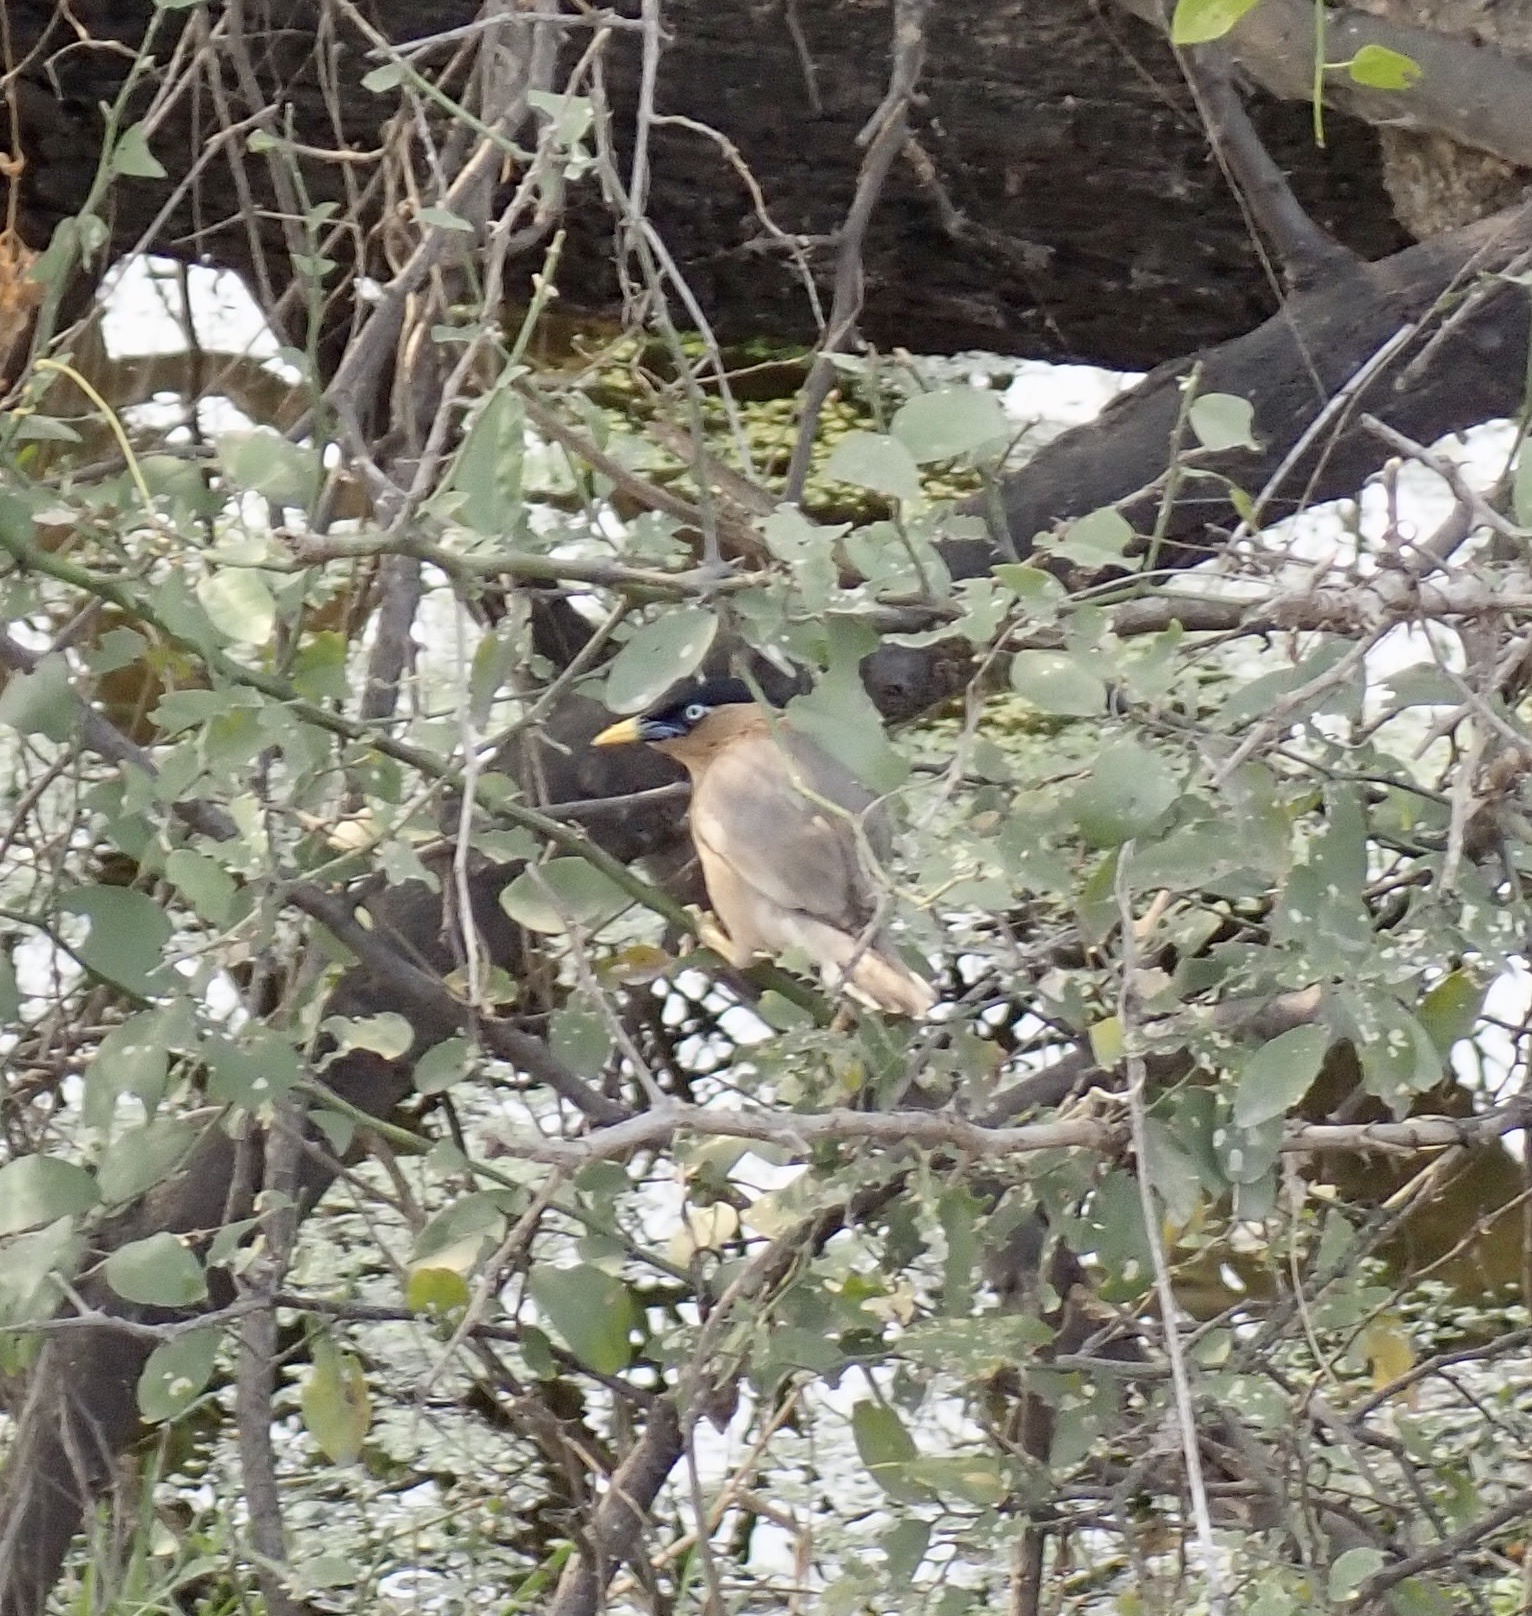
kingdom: Animalia
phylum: Chordata
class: Aves
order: Passeriformes
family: Sturnidae
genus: Sturnia
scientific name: Sturnia pagodarum
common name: Brahminy starling
